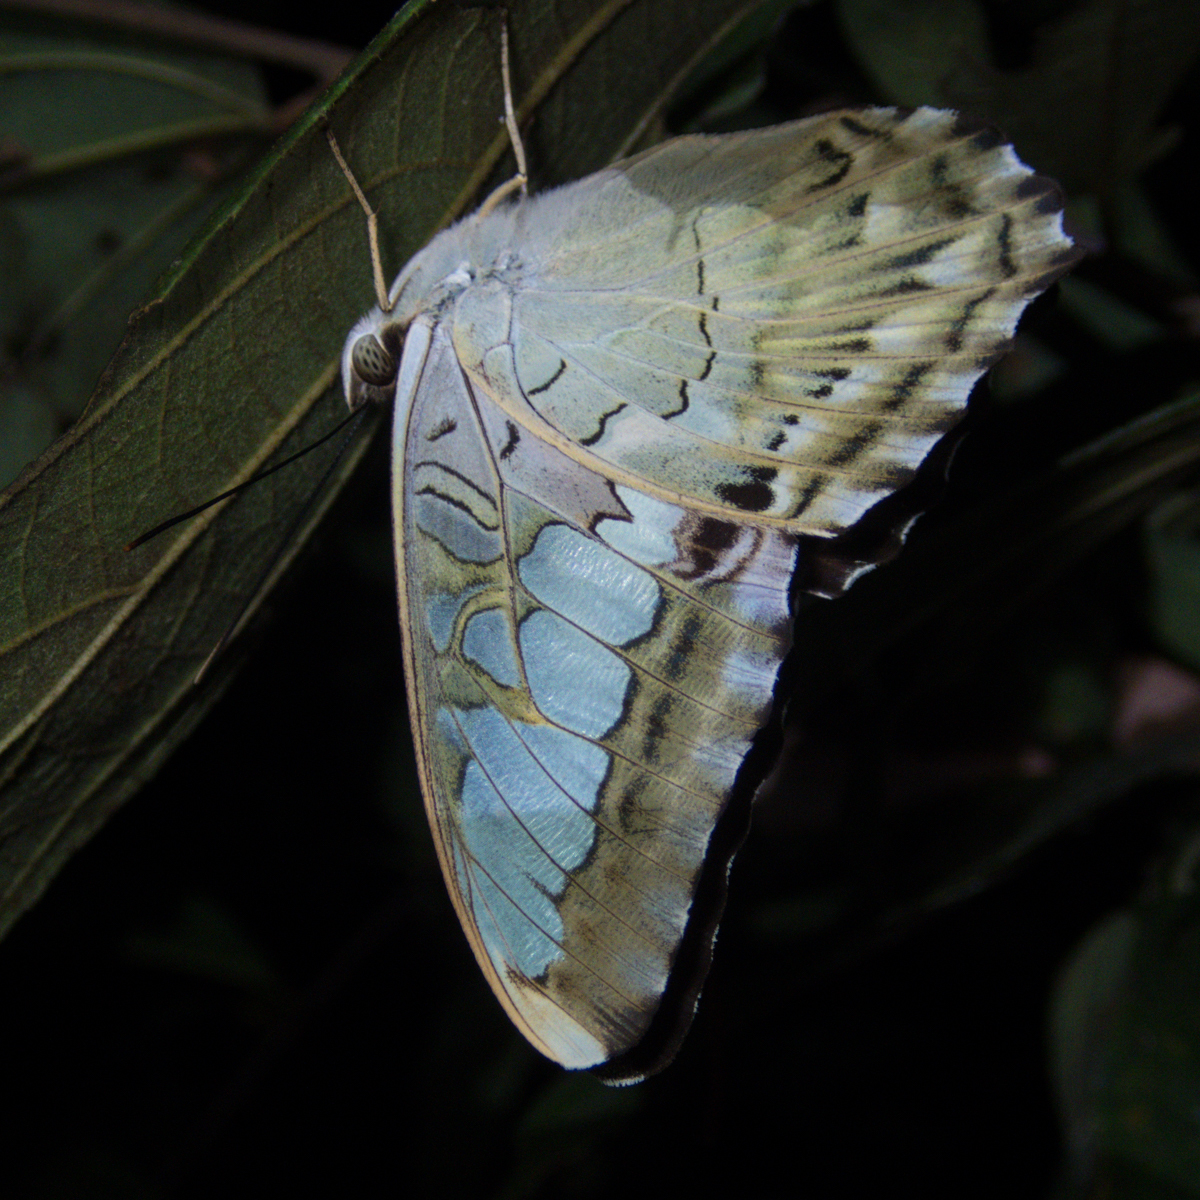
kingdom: Animalia
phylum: Arthropoda
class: Insecta
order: Lepidoptera
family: Nymphalidae
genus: Kallima
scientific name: Kallima sylvia
